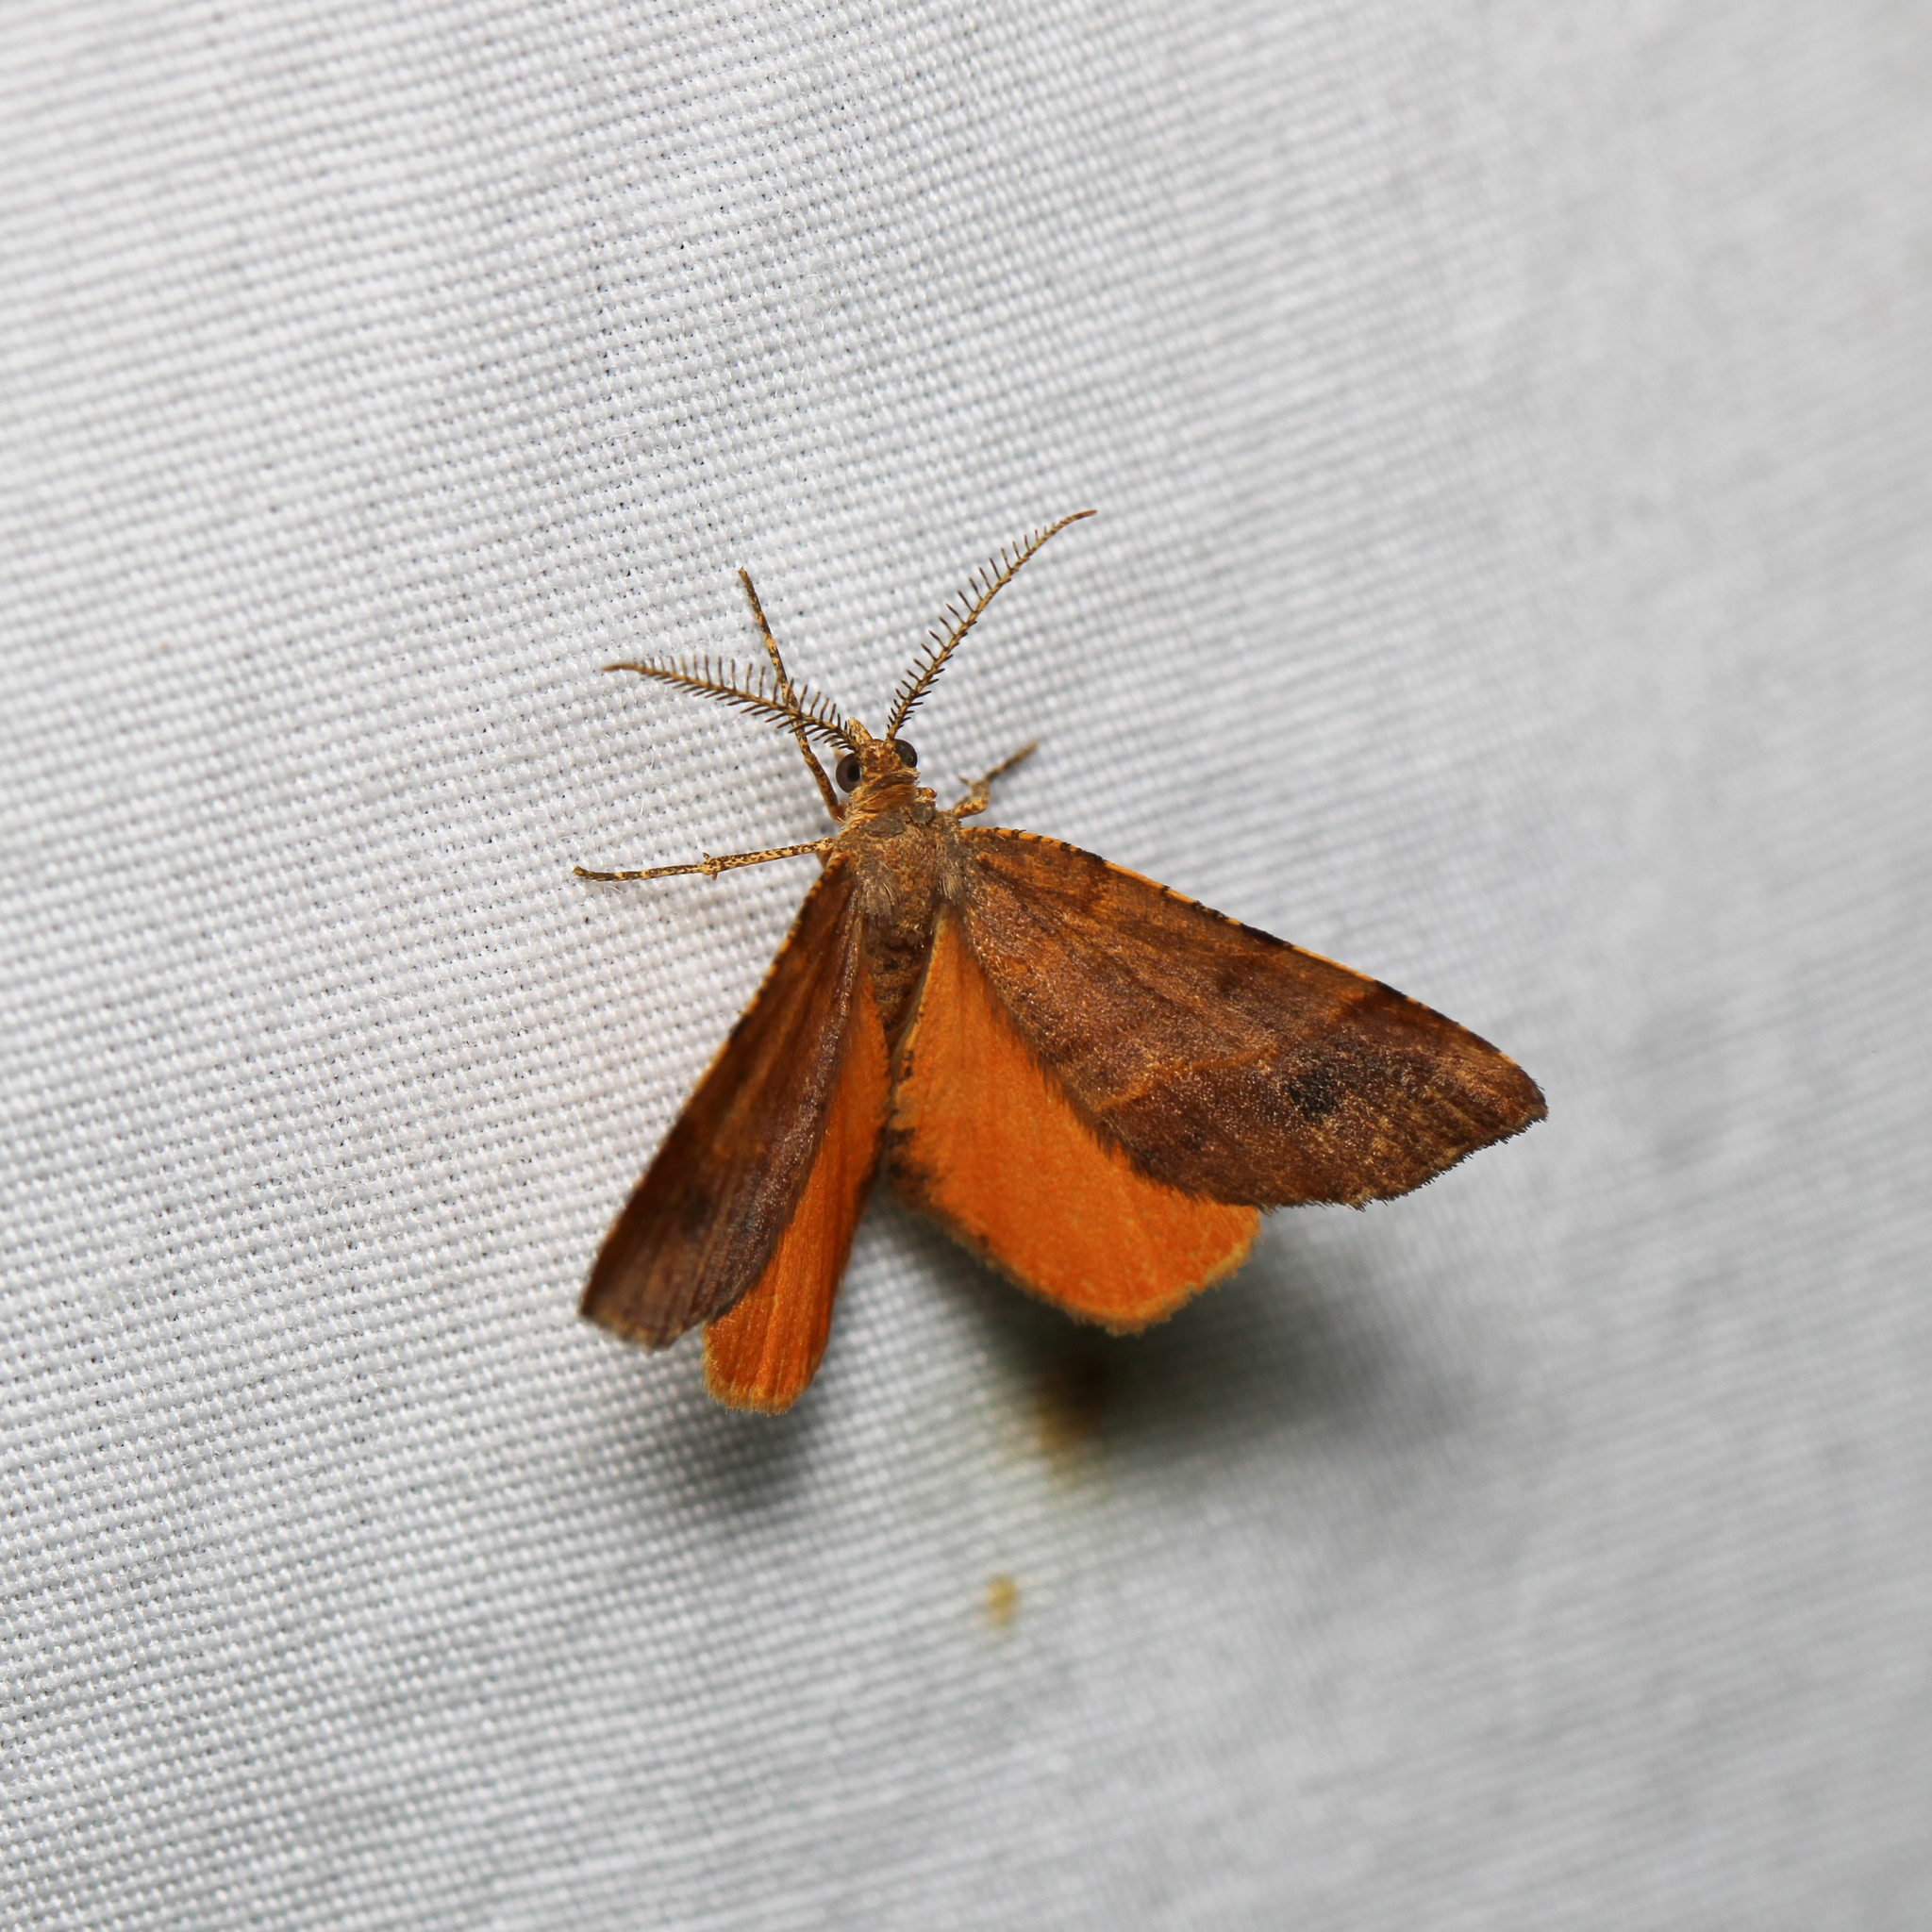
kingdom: Animalia
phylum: Arthropoda
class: Insecta
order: Lepidoptera
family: Geometridae
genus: Mellilla
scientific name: Mellilla xanthometata
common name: Orange wing moth
